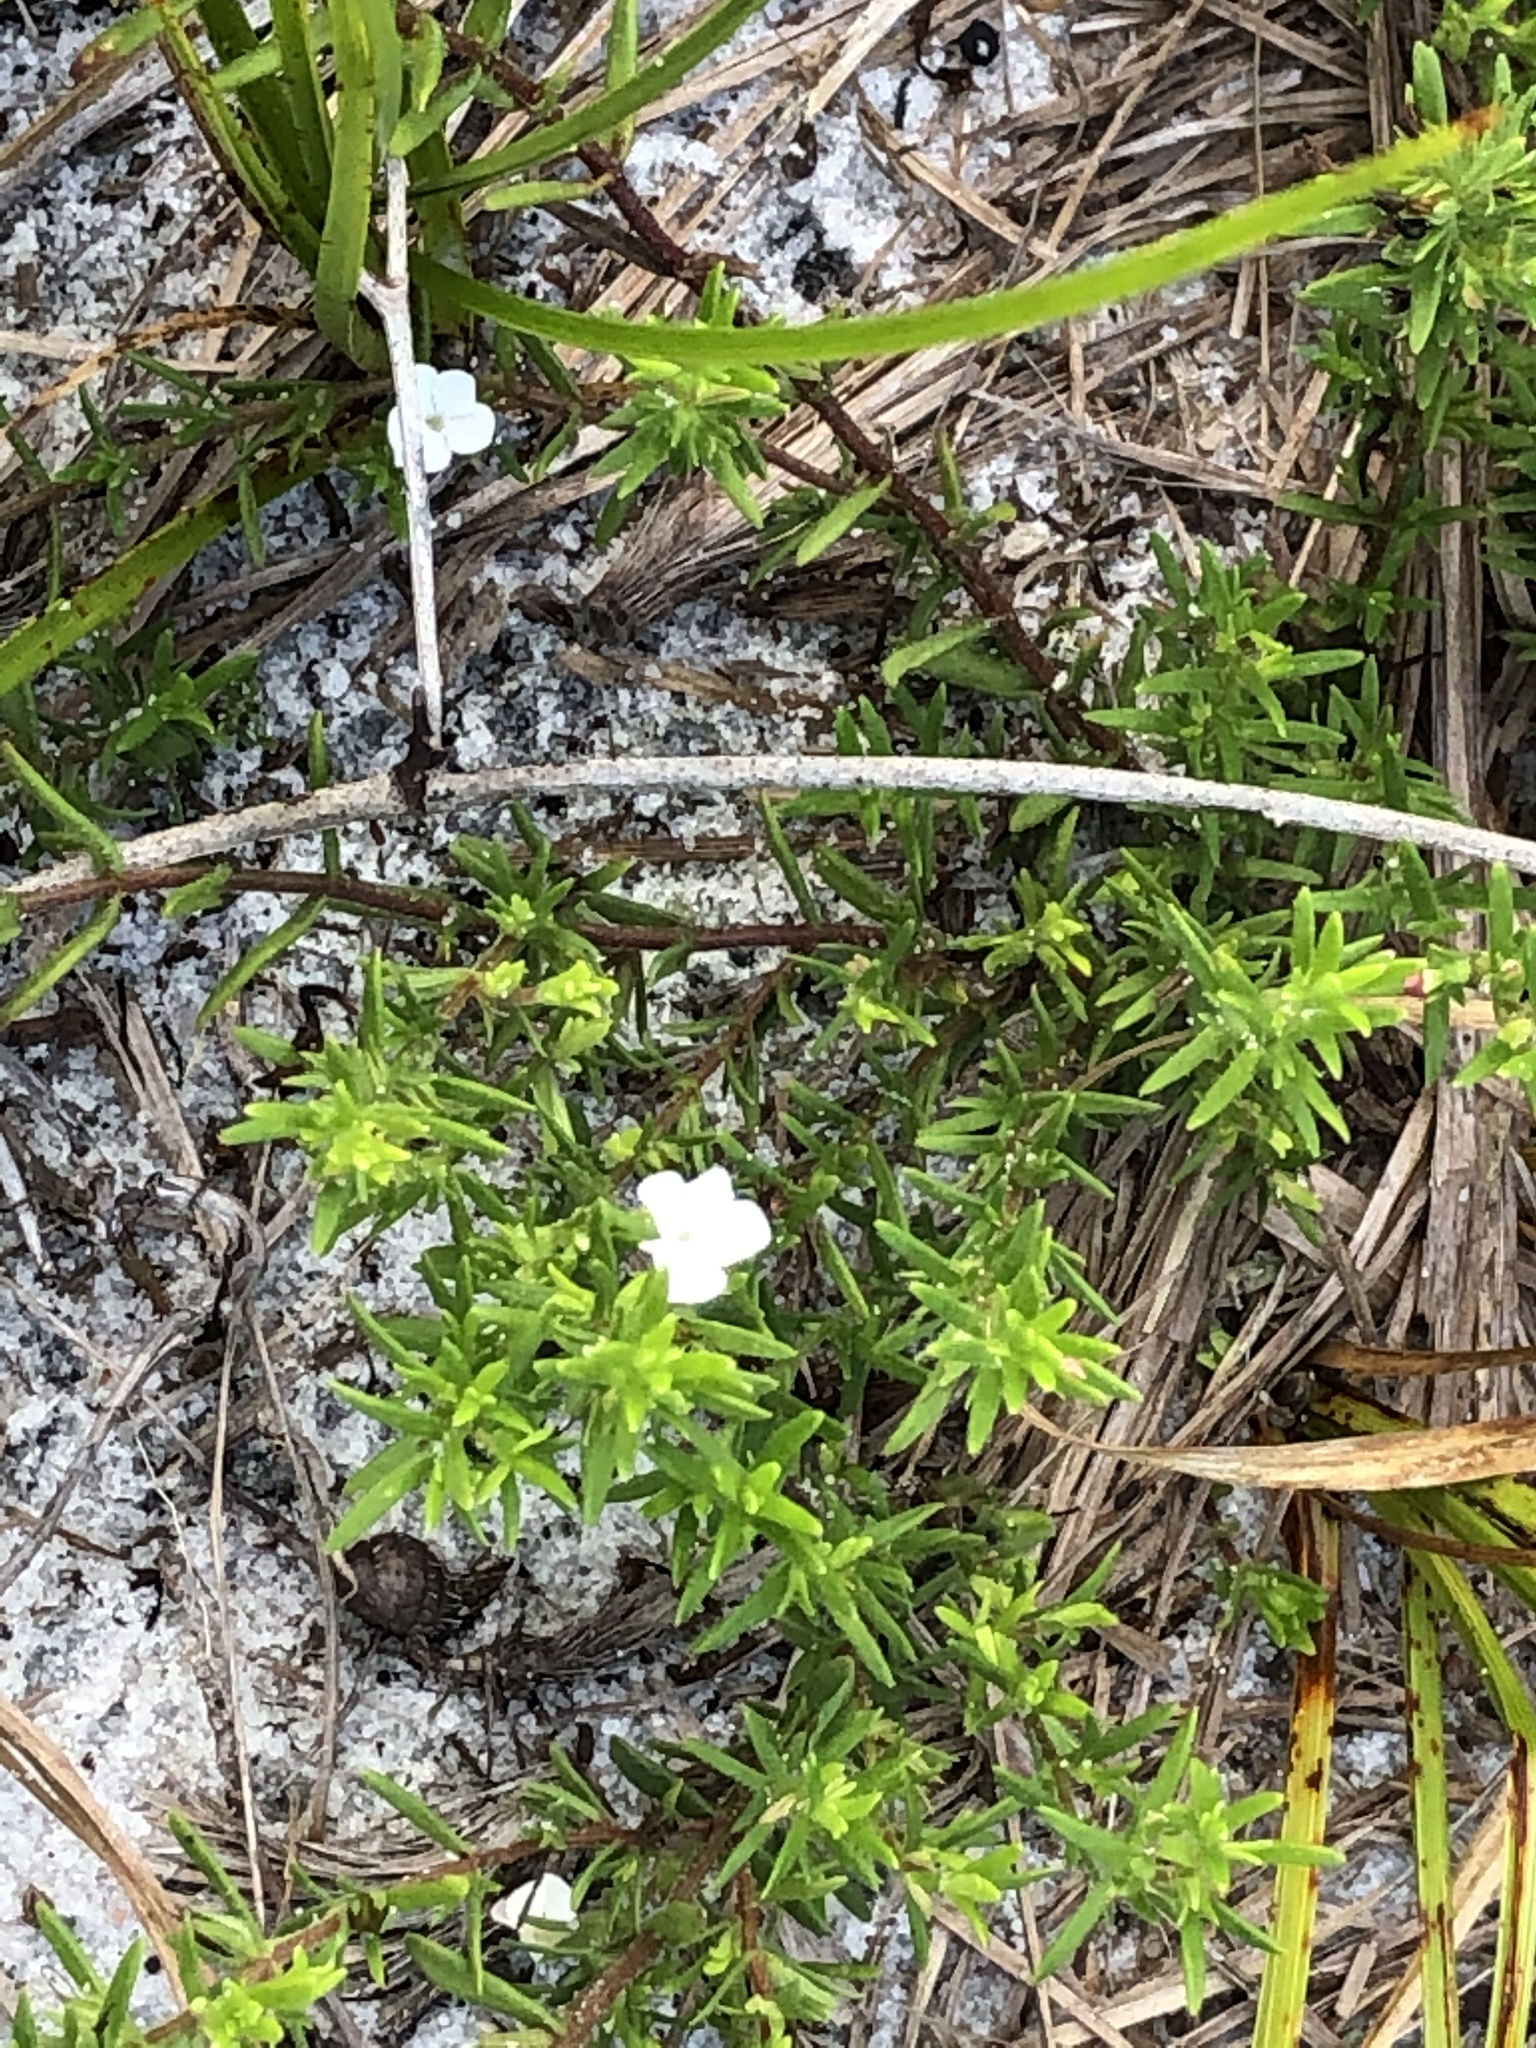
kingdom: Plantae
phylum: Tracheophyta
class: Magnoliopsida
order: Lamiales
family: Plantaginaceae
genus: Gratiola
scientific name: Gratiola hispida
